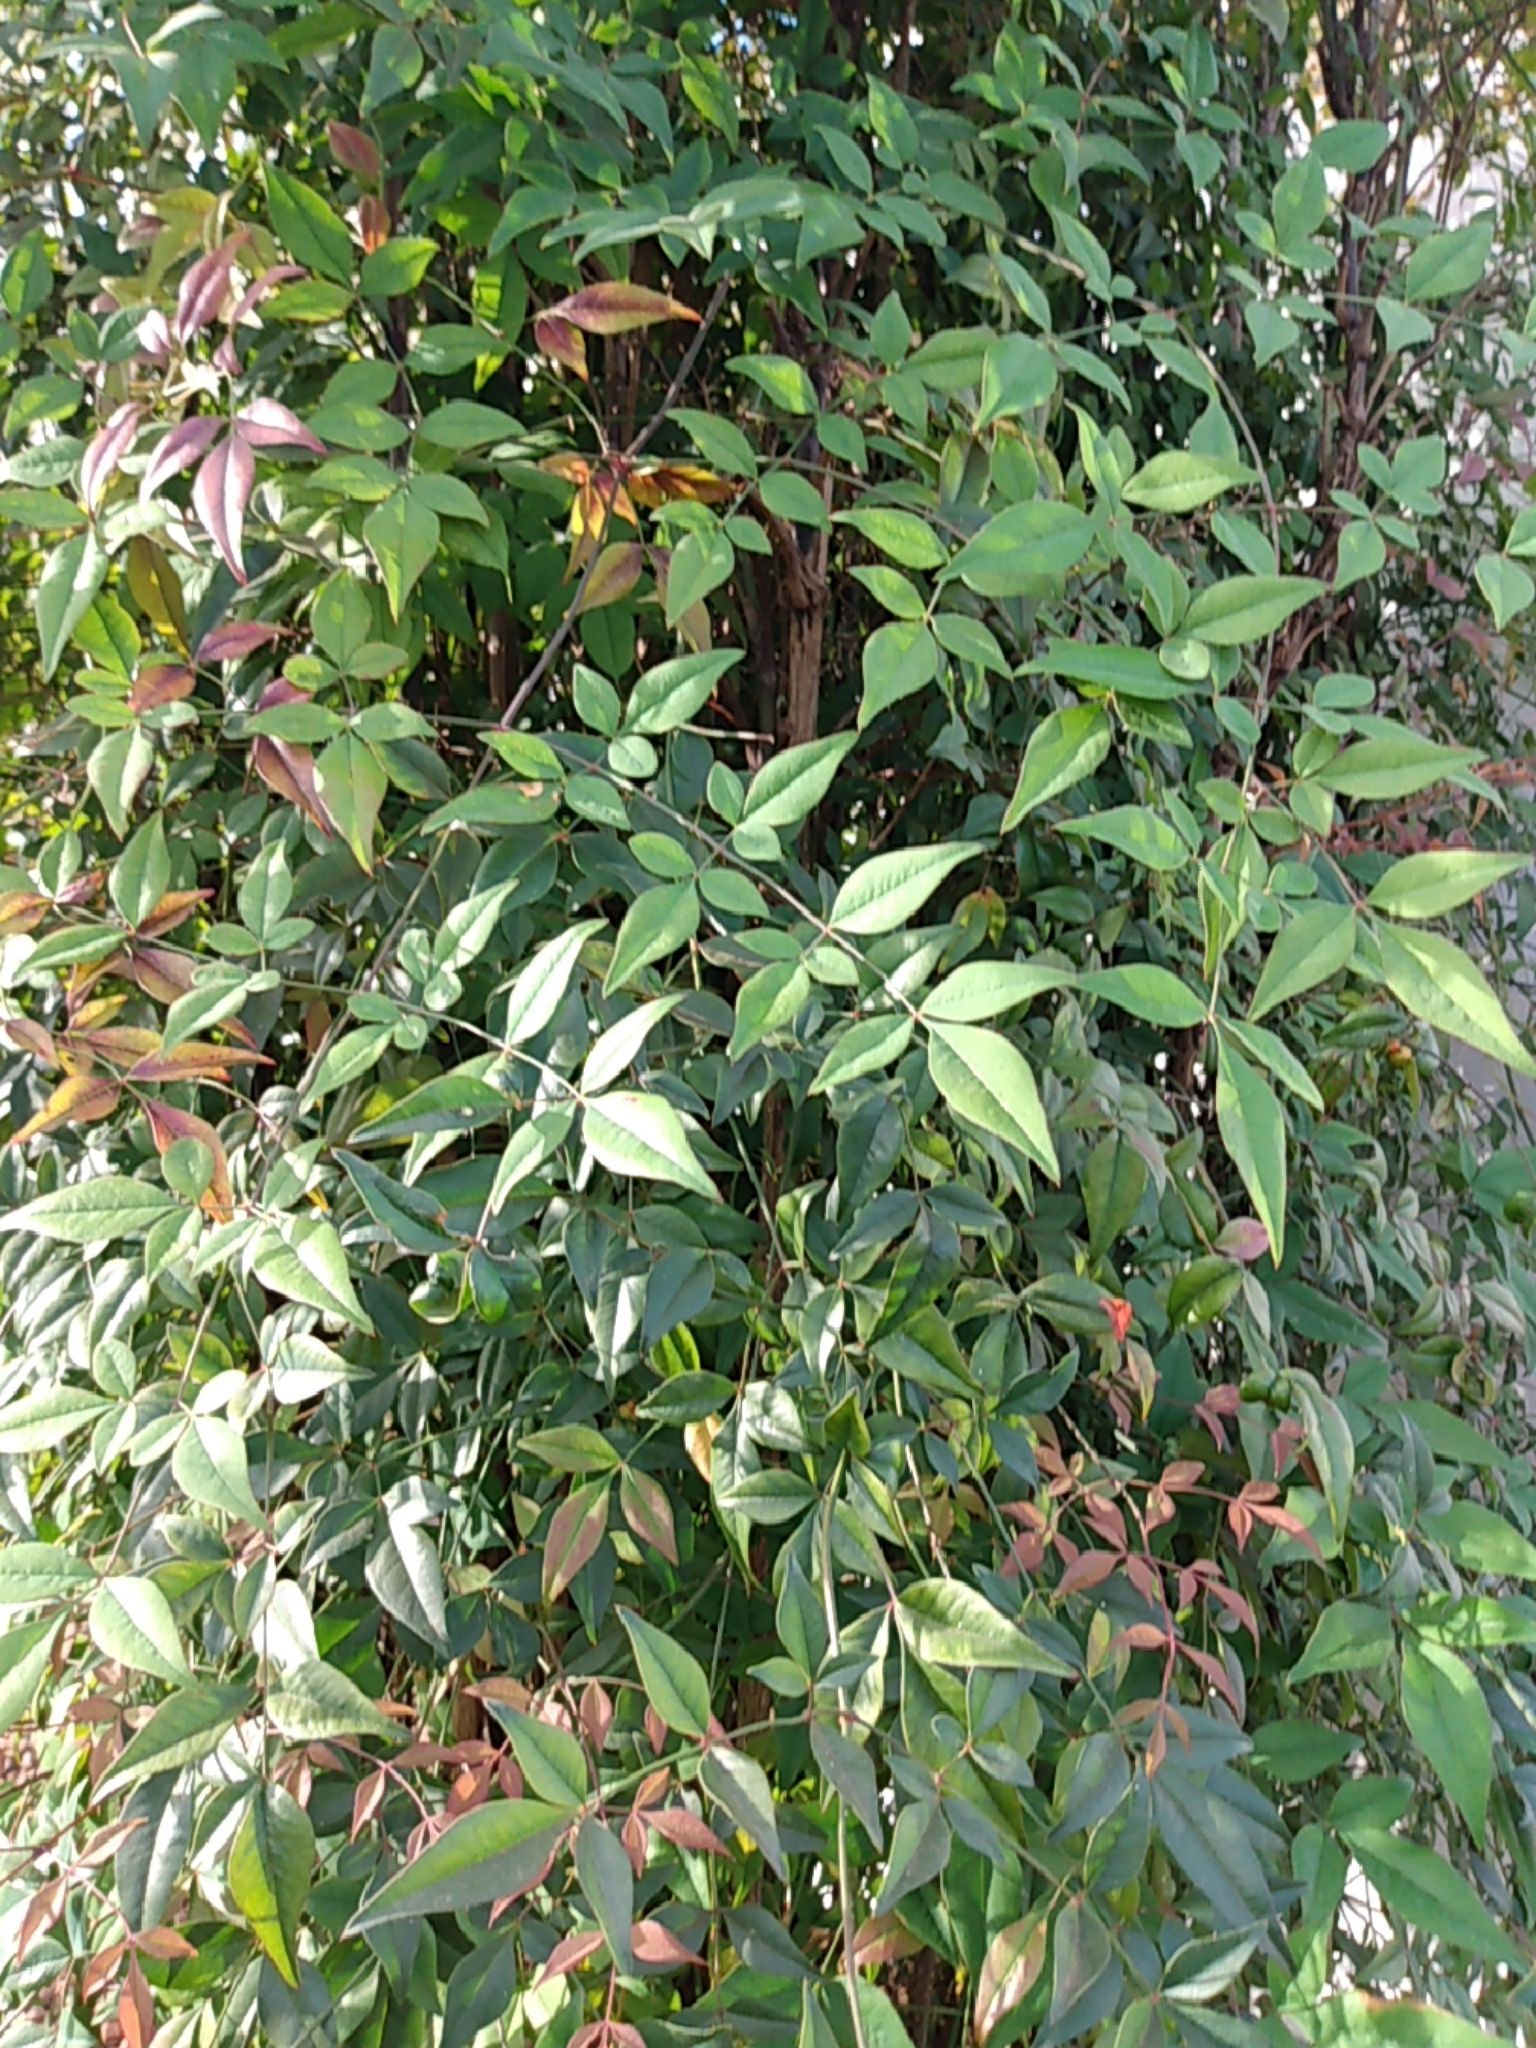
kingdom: Plantae
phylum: Tracheophyta
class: Magnoliopsida
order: Ranunculales
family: Berberidaceae
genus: Nandina
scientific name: Nandina domestica
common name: Sacred bamboo
